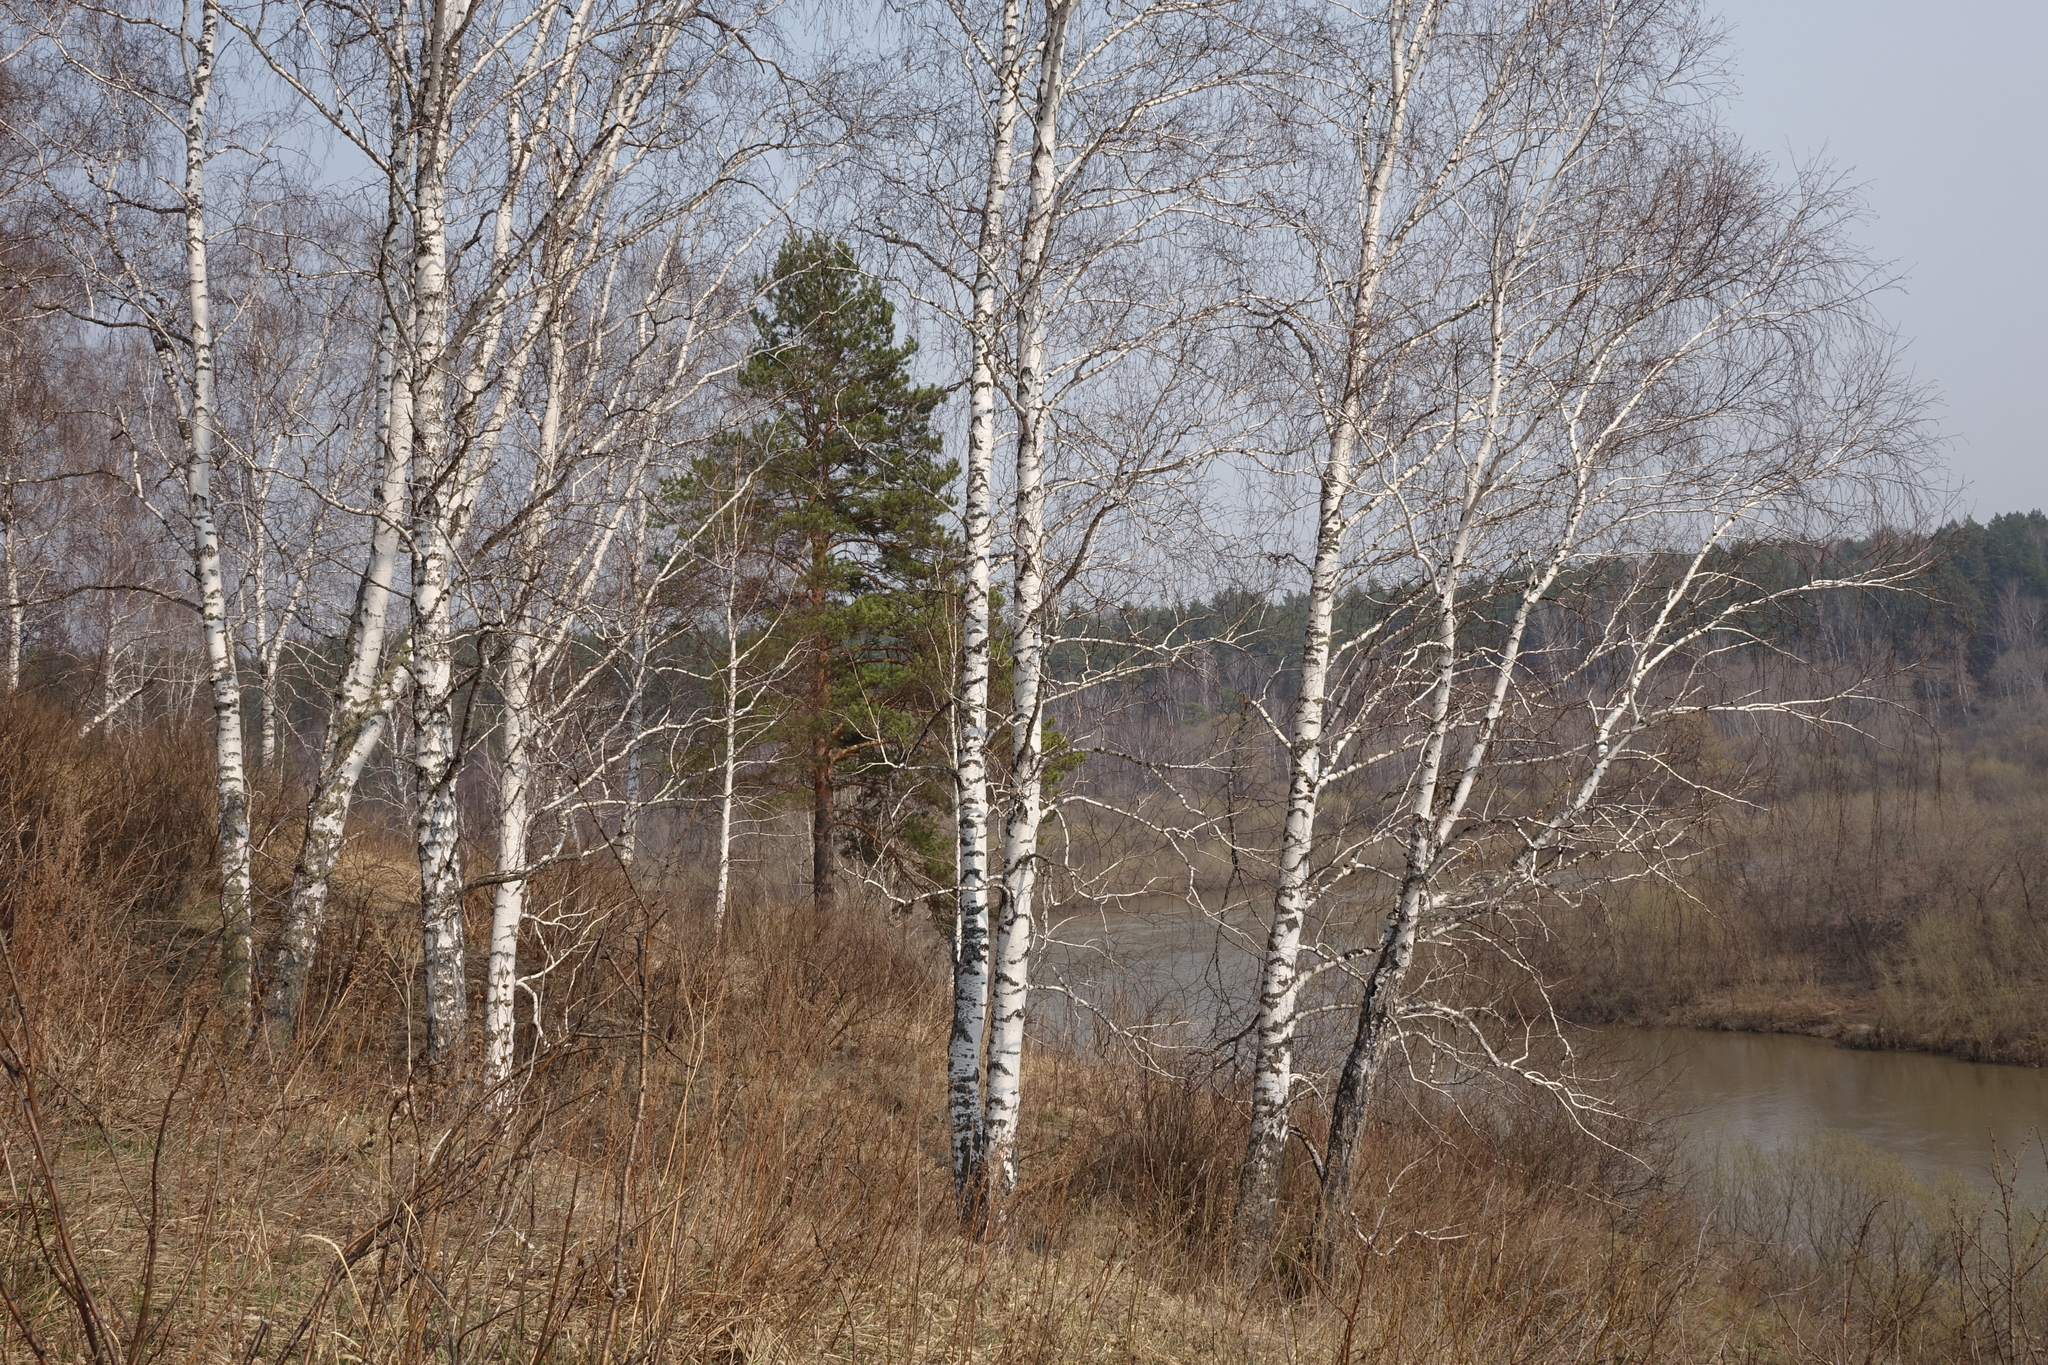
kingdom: Plantae
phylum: Tracheophyta
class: Magnoliopsida
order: Fagales
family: Betulaceae
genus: Betula
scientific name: Betula pendula
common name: Silver birch
